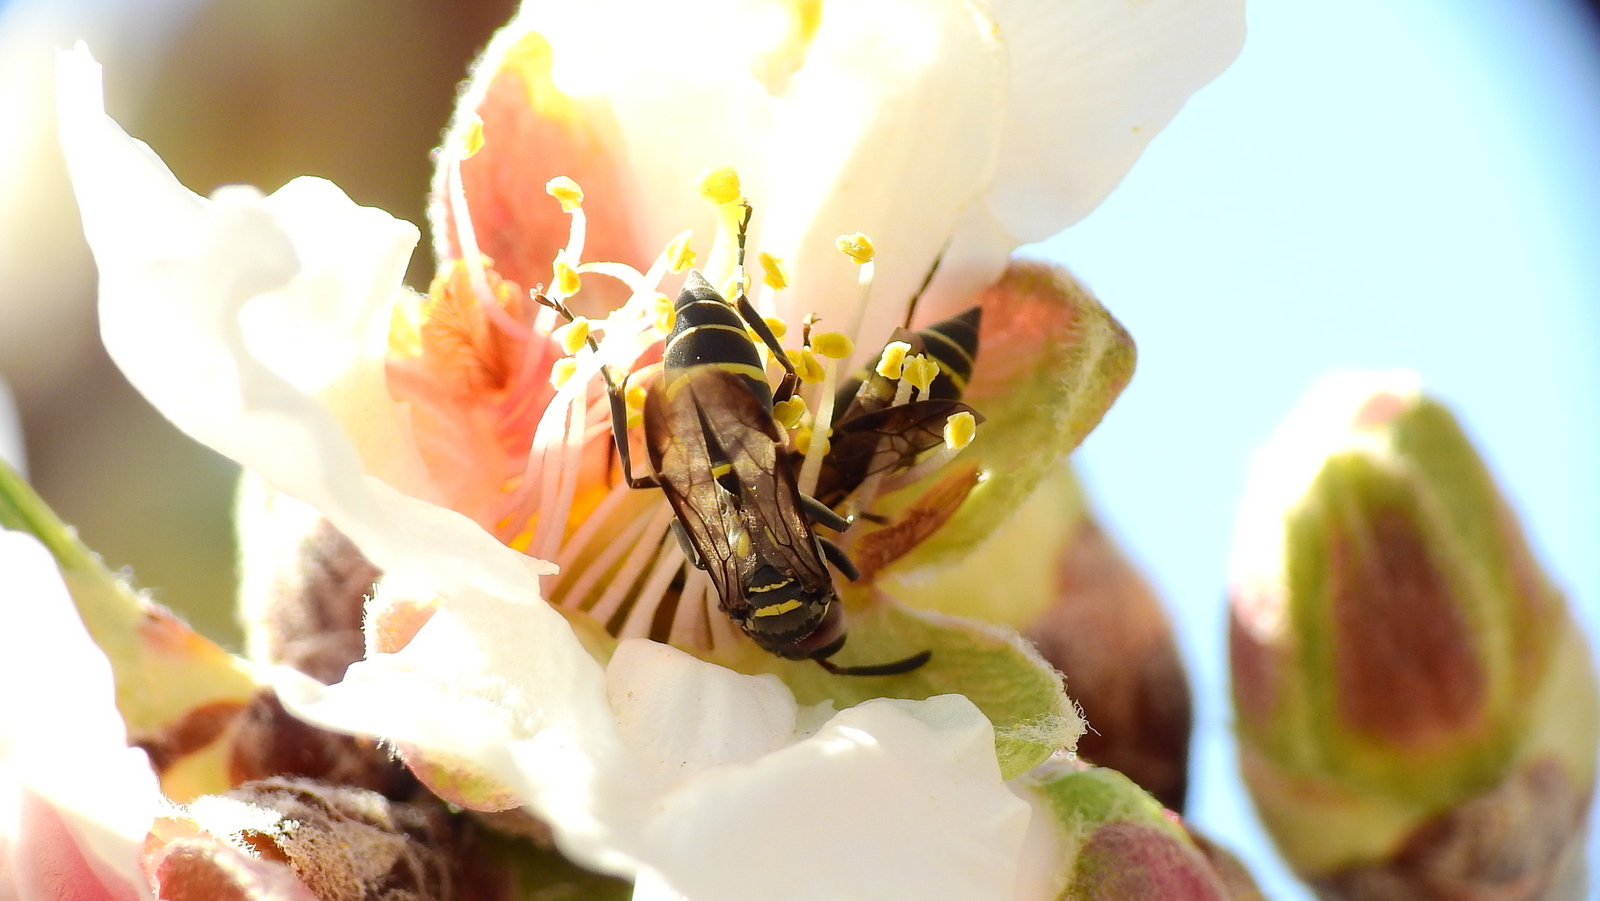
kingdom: Animalia
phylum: Arthropoda
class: Insecta
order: Hymenoptera
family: Eumenidae
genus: Polybia
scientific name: Polybia ruficeps
